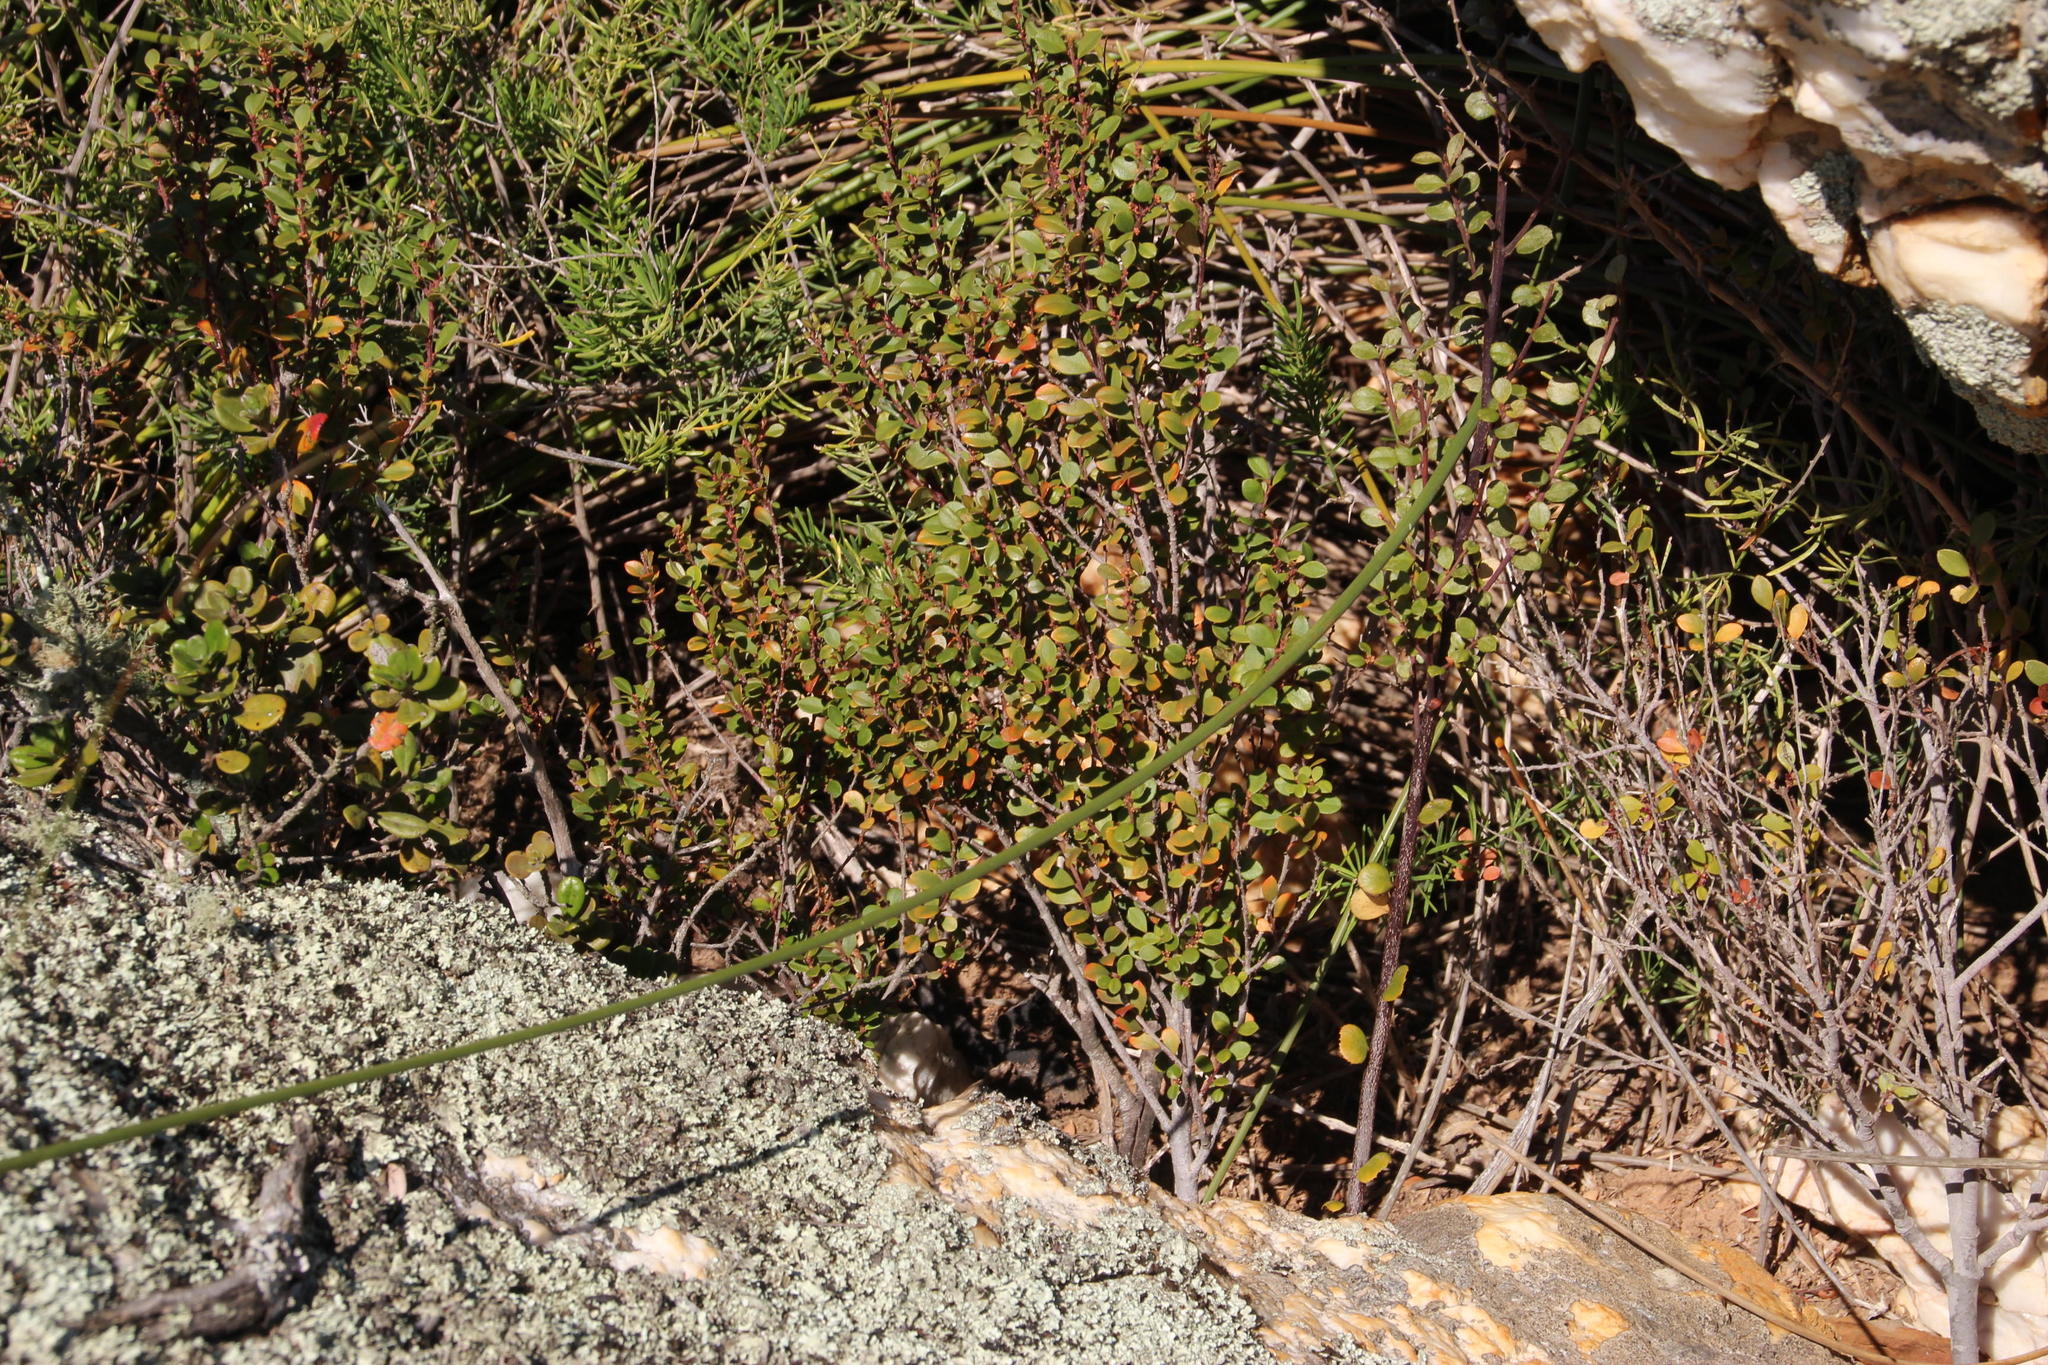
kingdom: Plantae
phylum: Tracheophyta
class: Magnoliopsida
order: Ericales
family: Primulaceae
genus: Myrsine
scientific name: Myrsine africana
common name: African-boxwood
